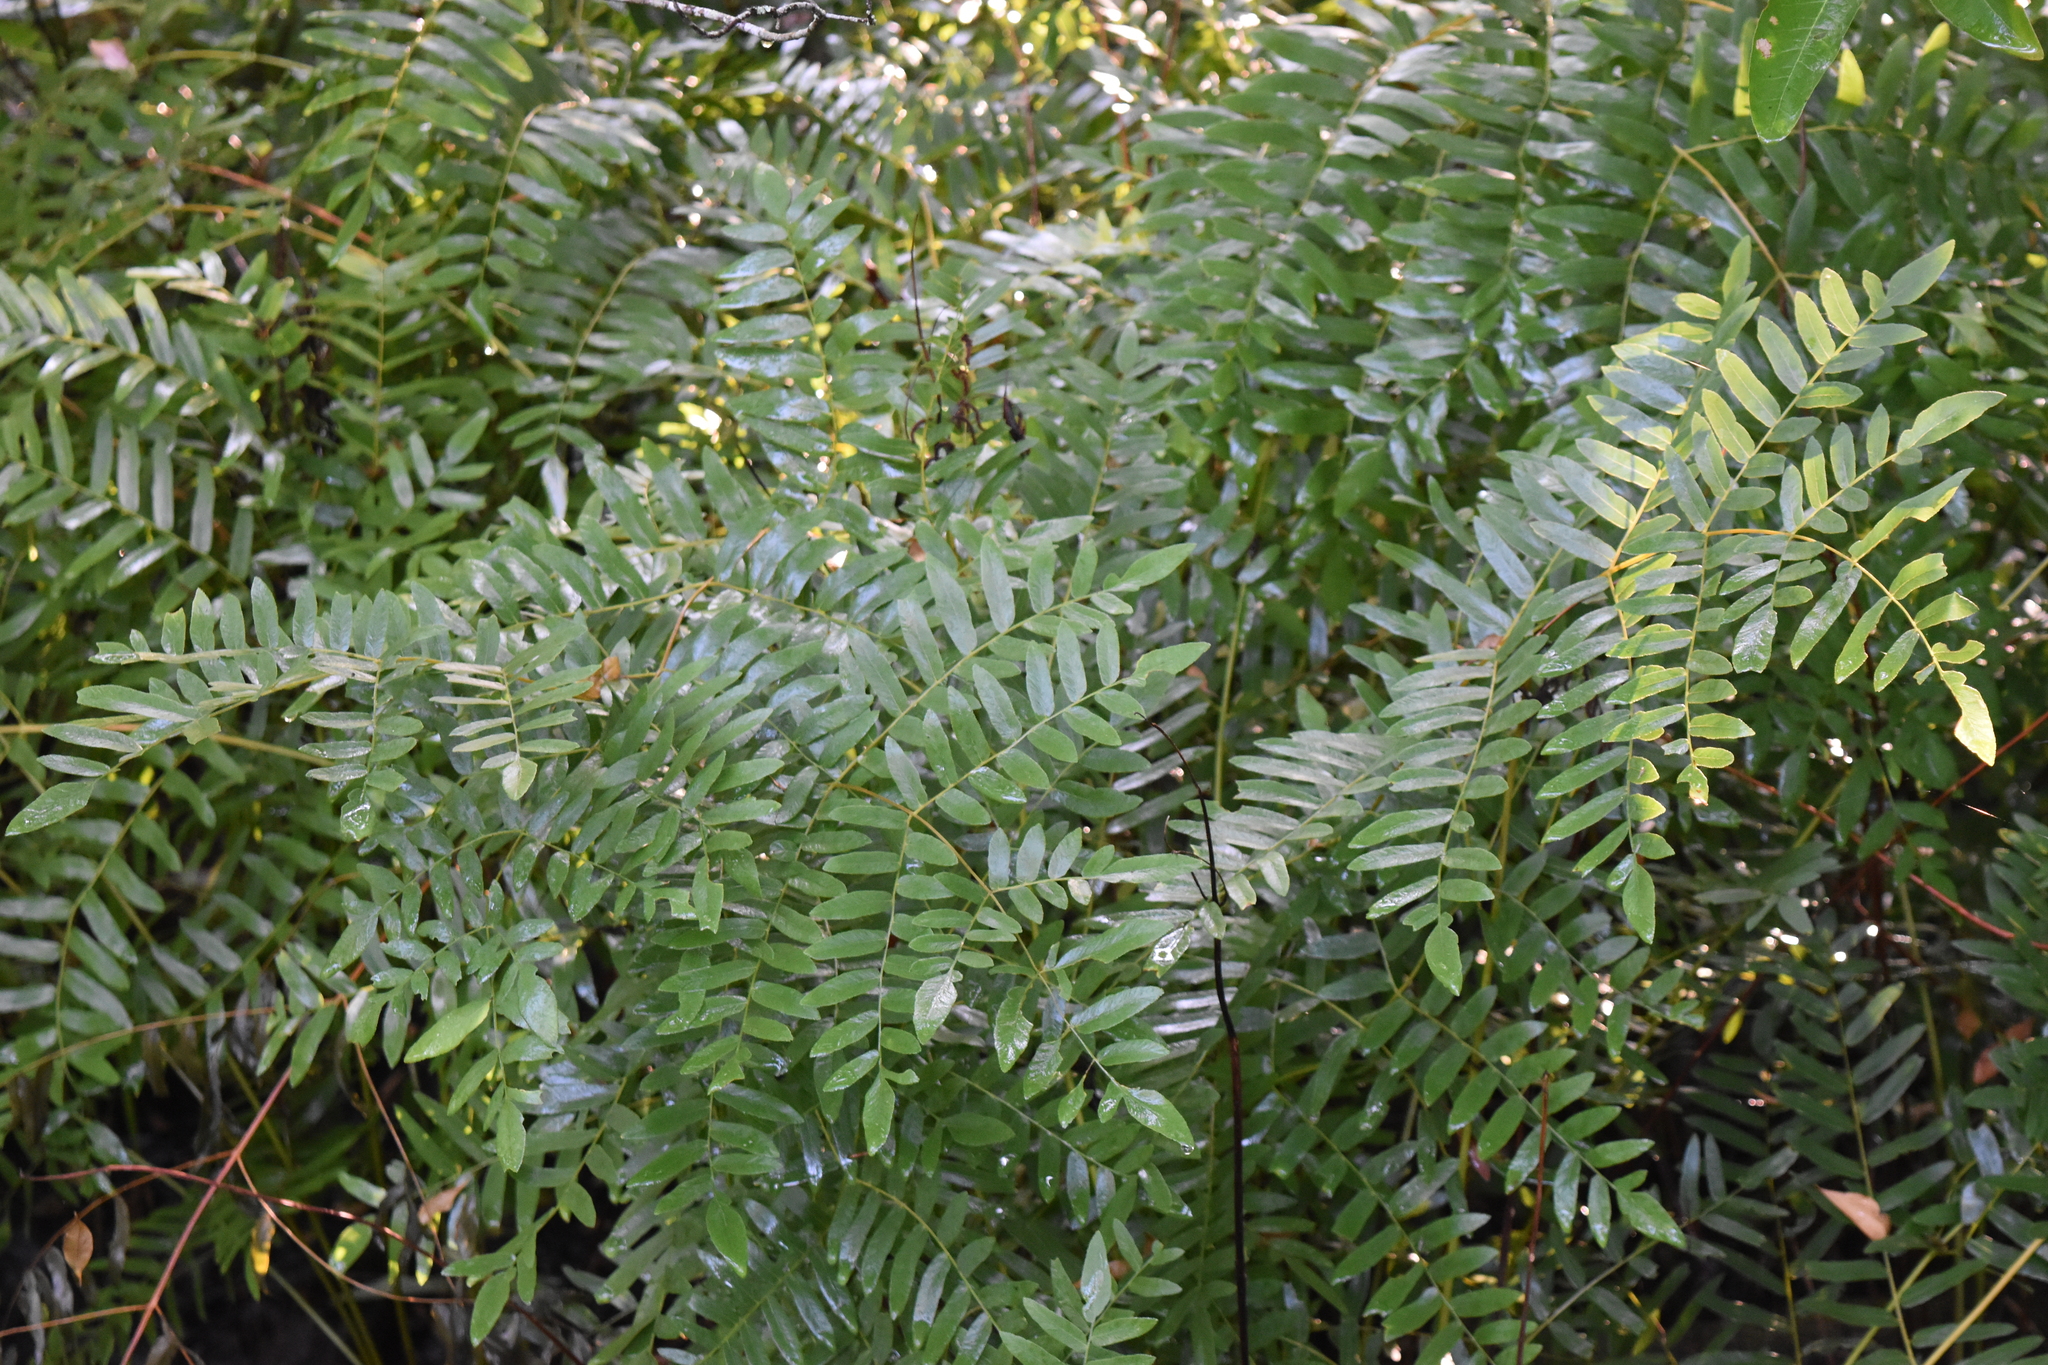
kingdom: Plantae
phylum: Tracheophyta
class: Polypodiopsida
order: Osmundales
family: Osmundaceae
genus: Osmunda
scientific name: Osmunda spectabilis
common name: American royal fern
